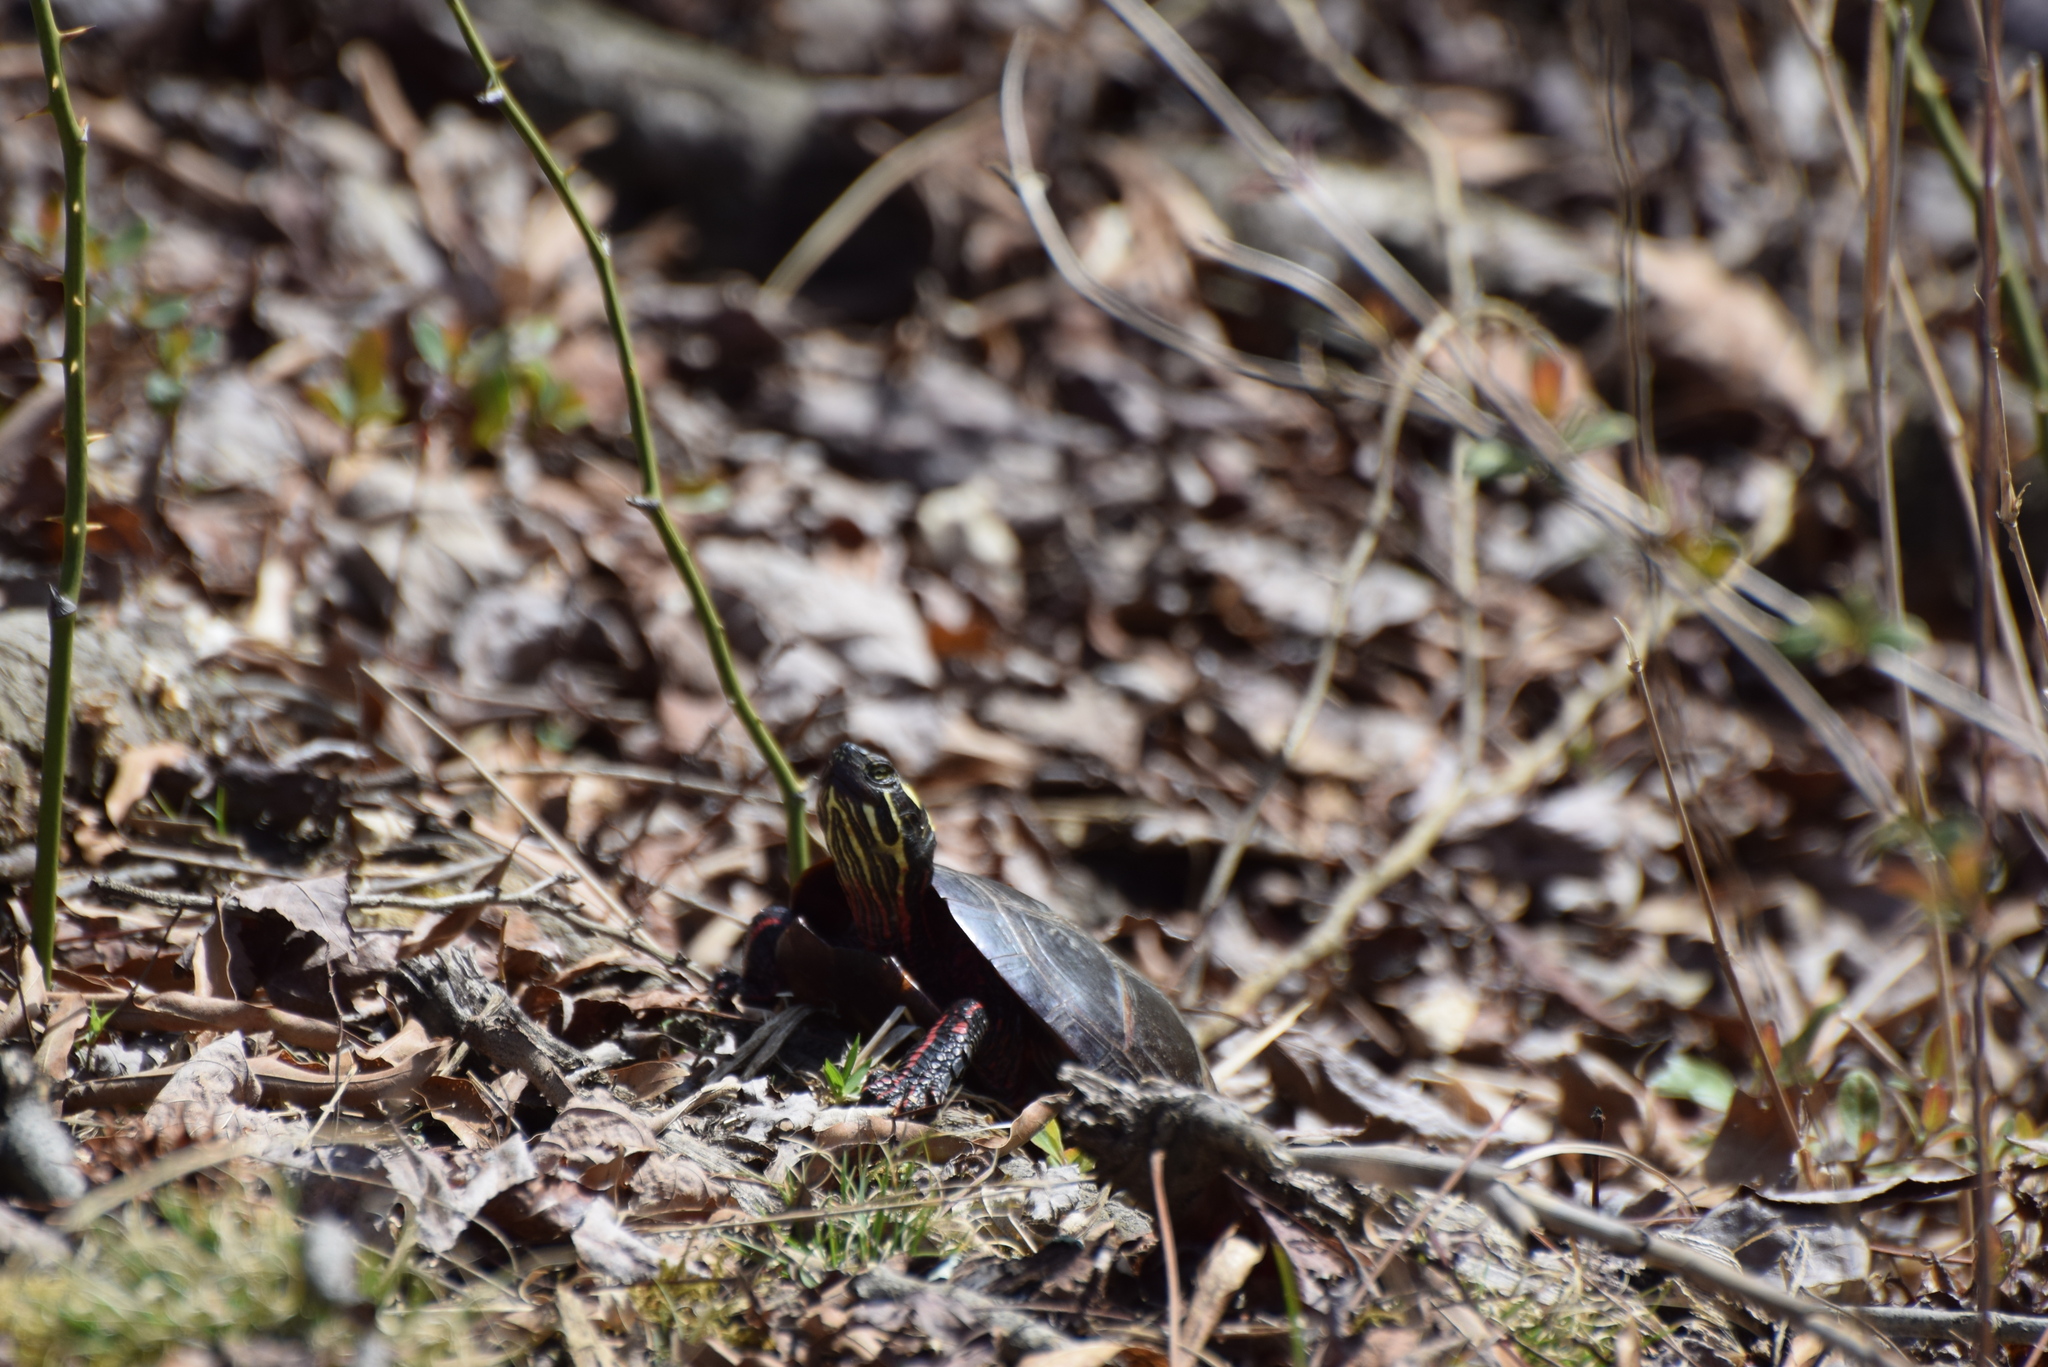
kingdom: Animalia
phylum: Chordata
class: Testudines
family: Emydidae
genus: Chrysemys
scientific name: Chrysemys picta
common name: Painted turtle
